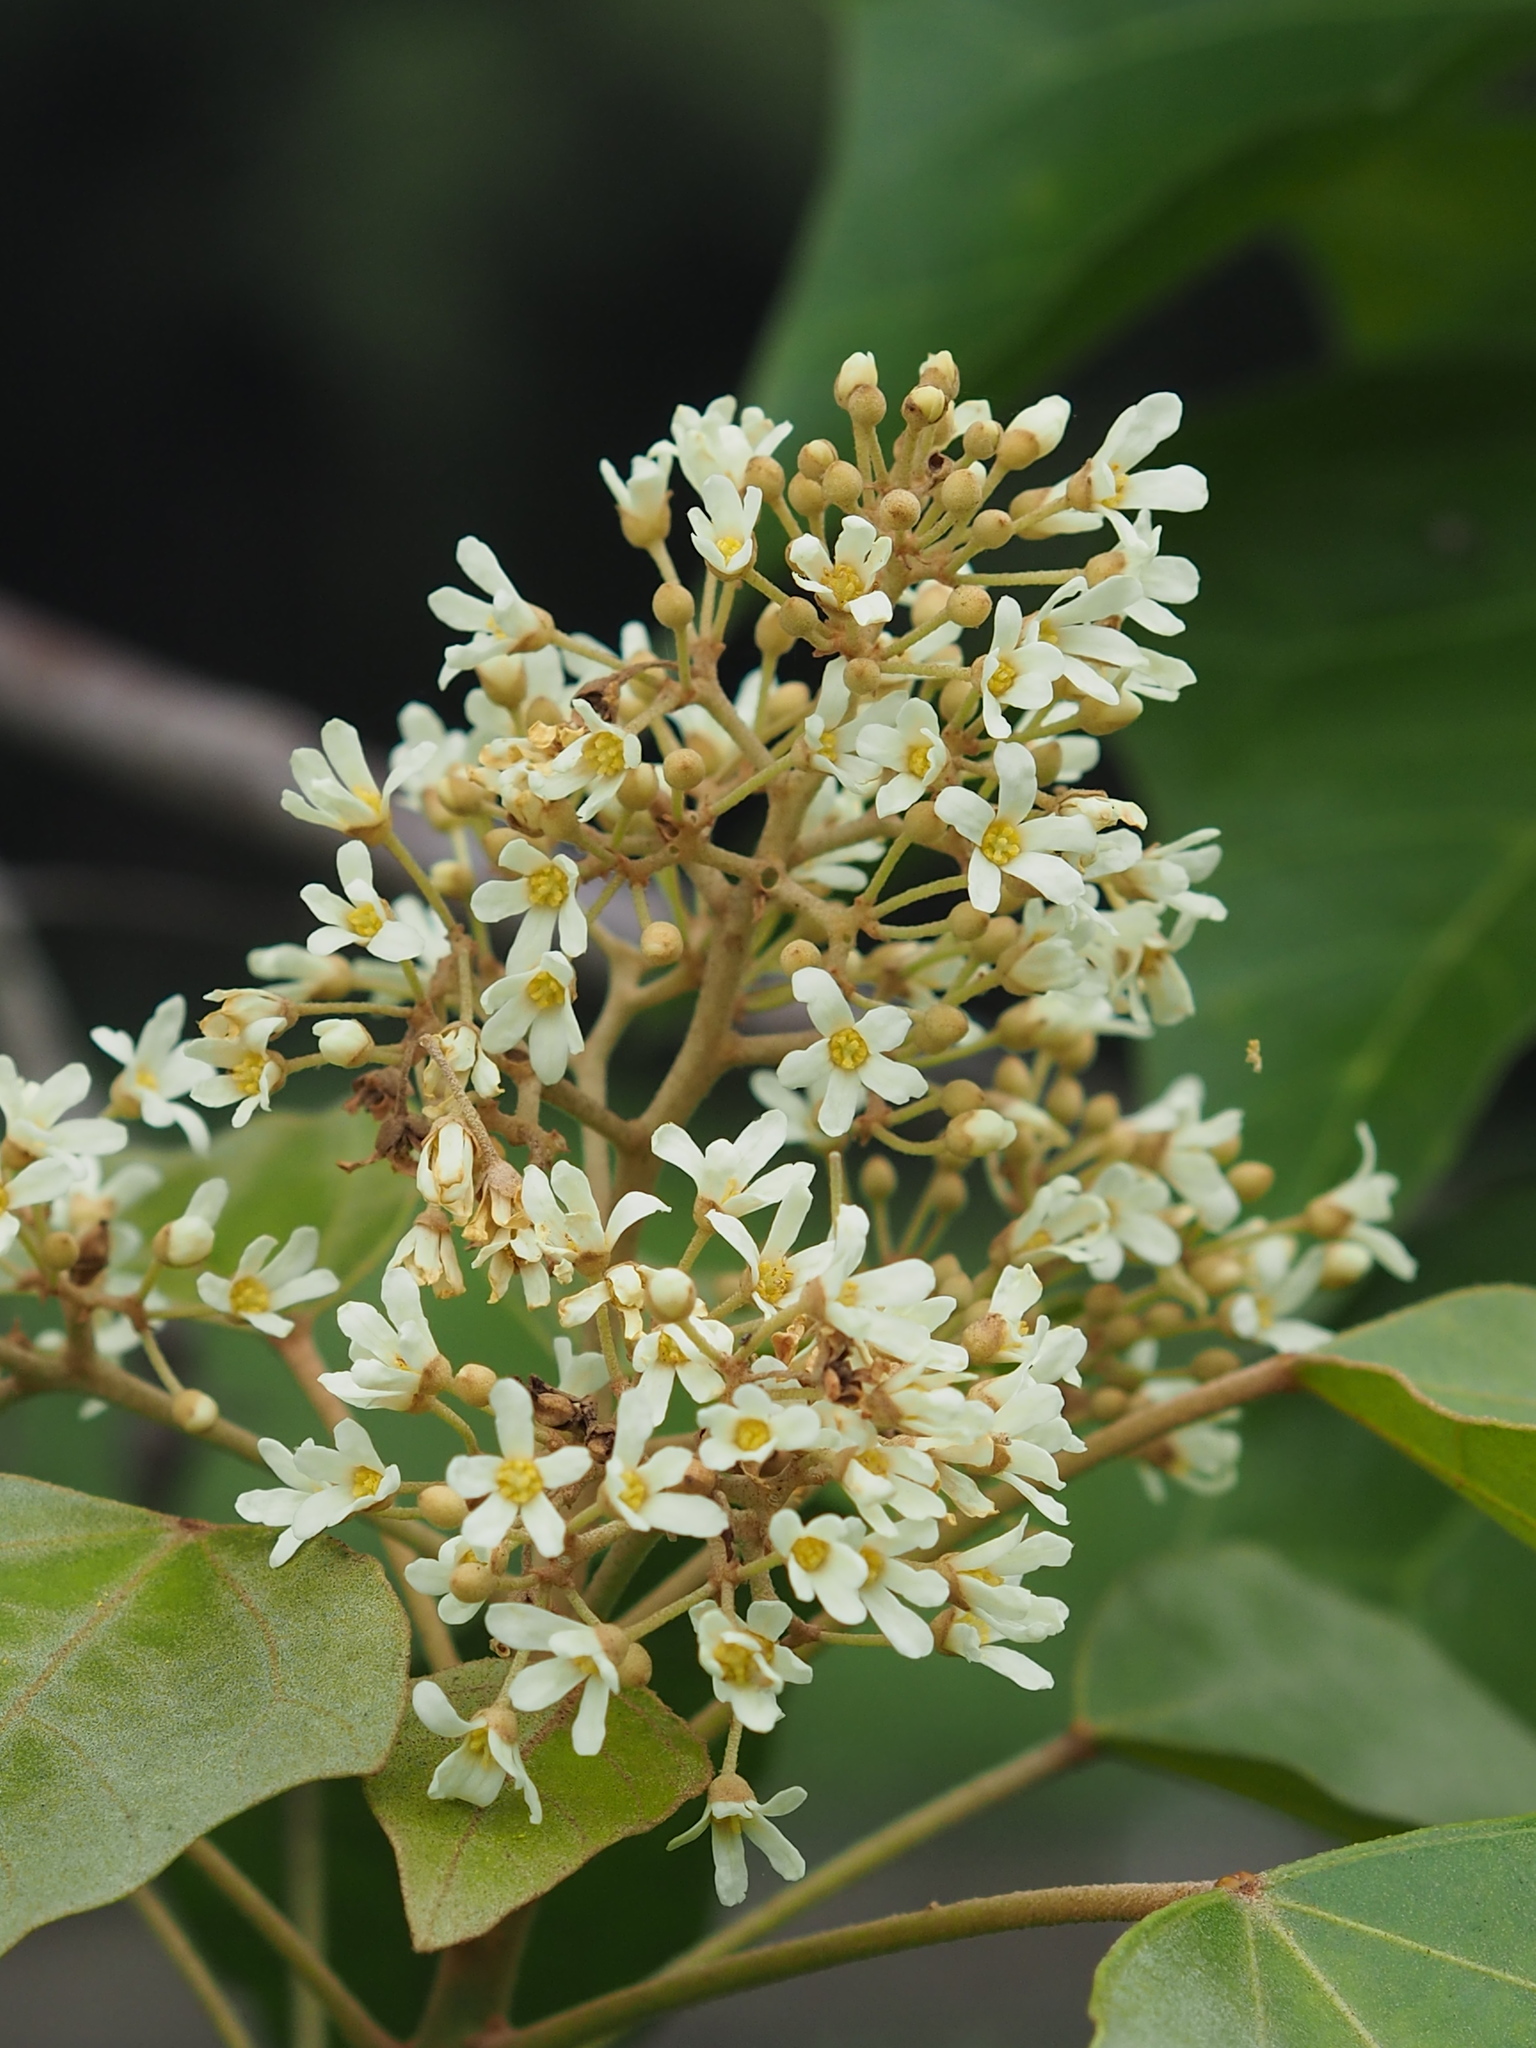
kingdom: Plantae
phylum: Tracheophyta
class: Magnoliopsida
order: Malpighiales
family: Euphorbiaceae
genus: Aleurites
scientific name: Aleurites moluccanus
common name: Candlenut tree
